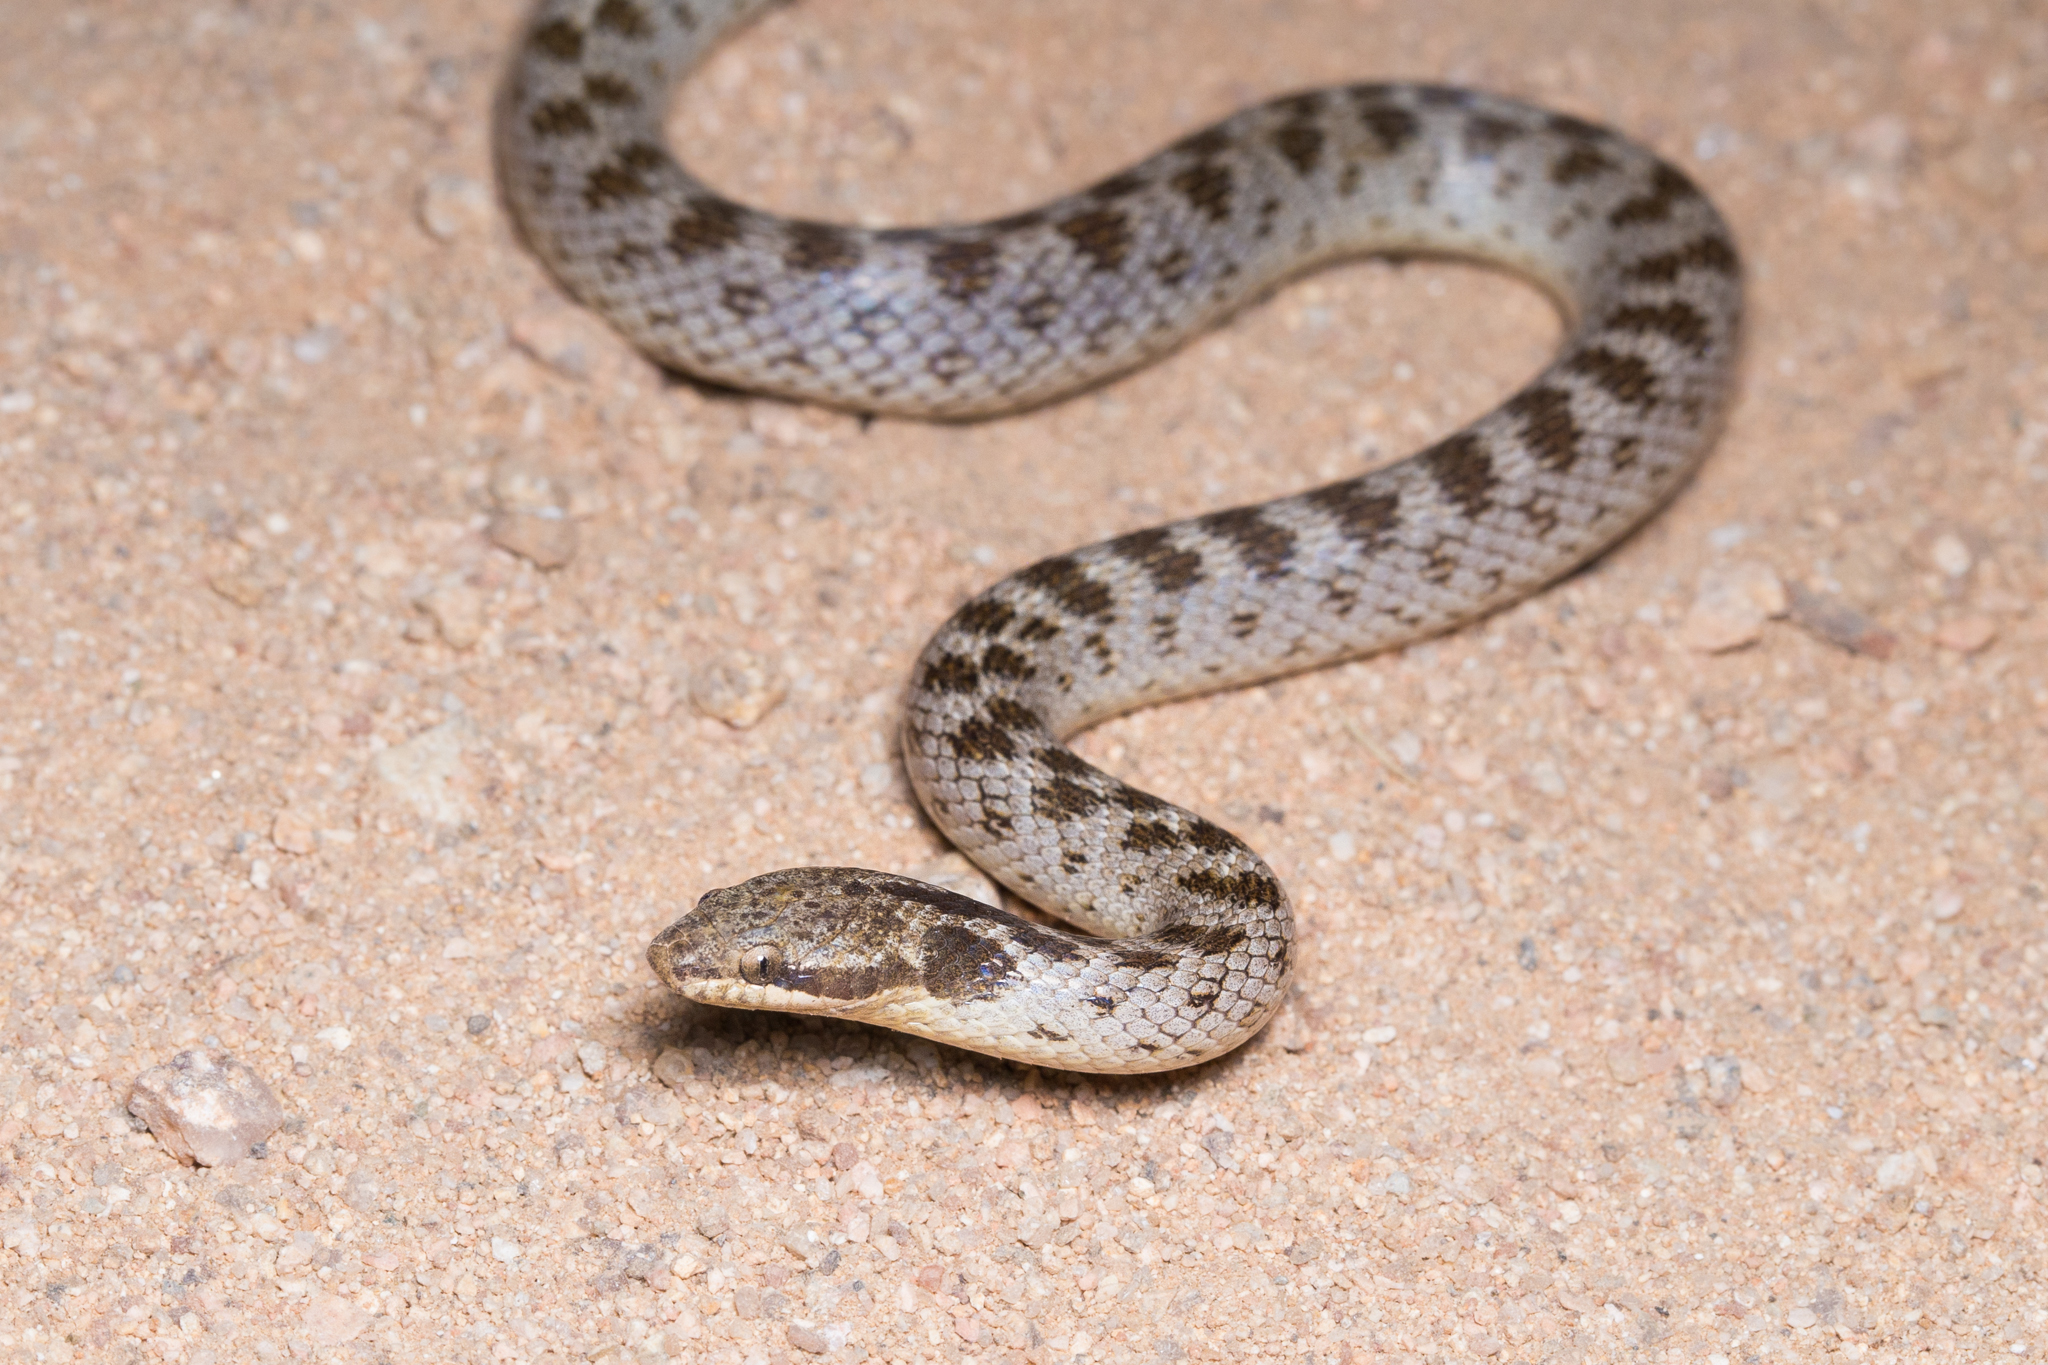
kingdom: Animalia
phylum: Chordata
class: Squamata
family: Colubridae
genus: Hypsiglena
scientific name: Hypsiglena ochrorhynchus
